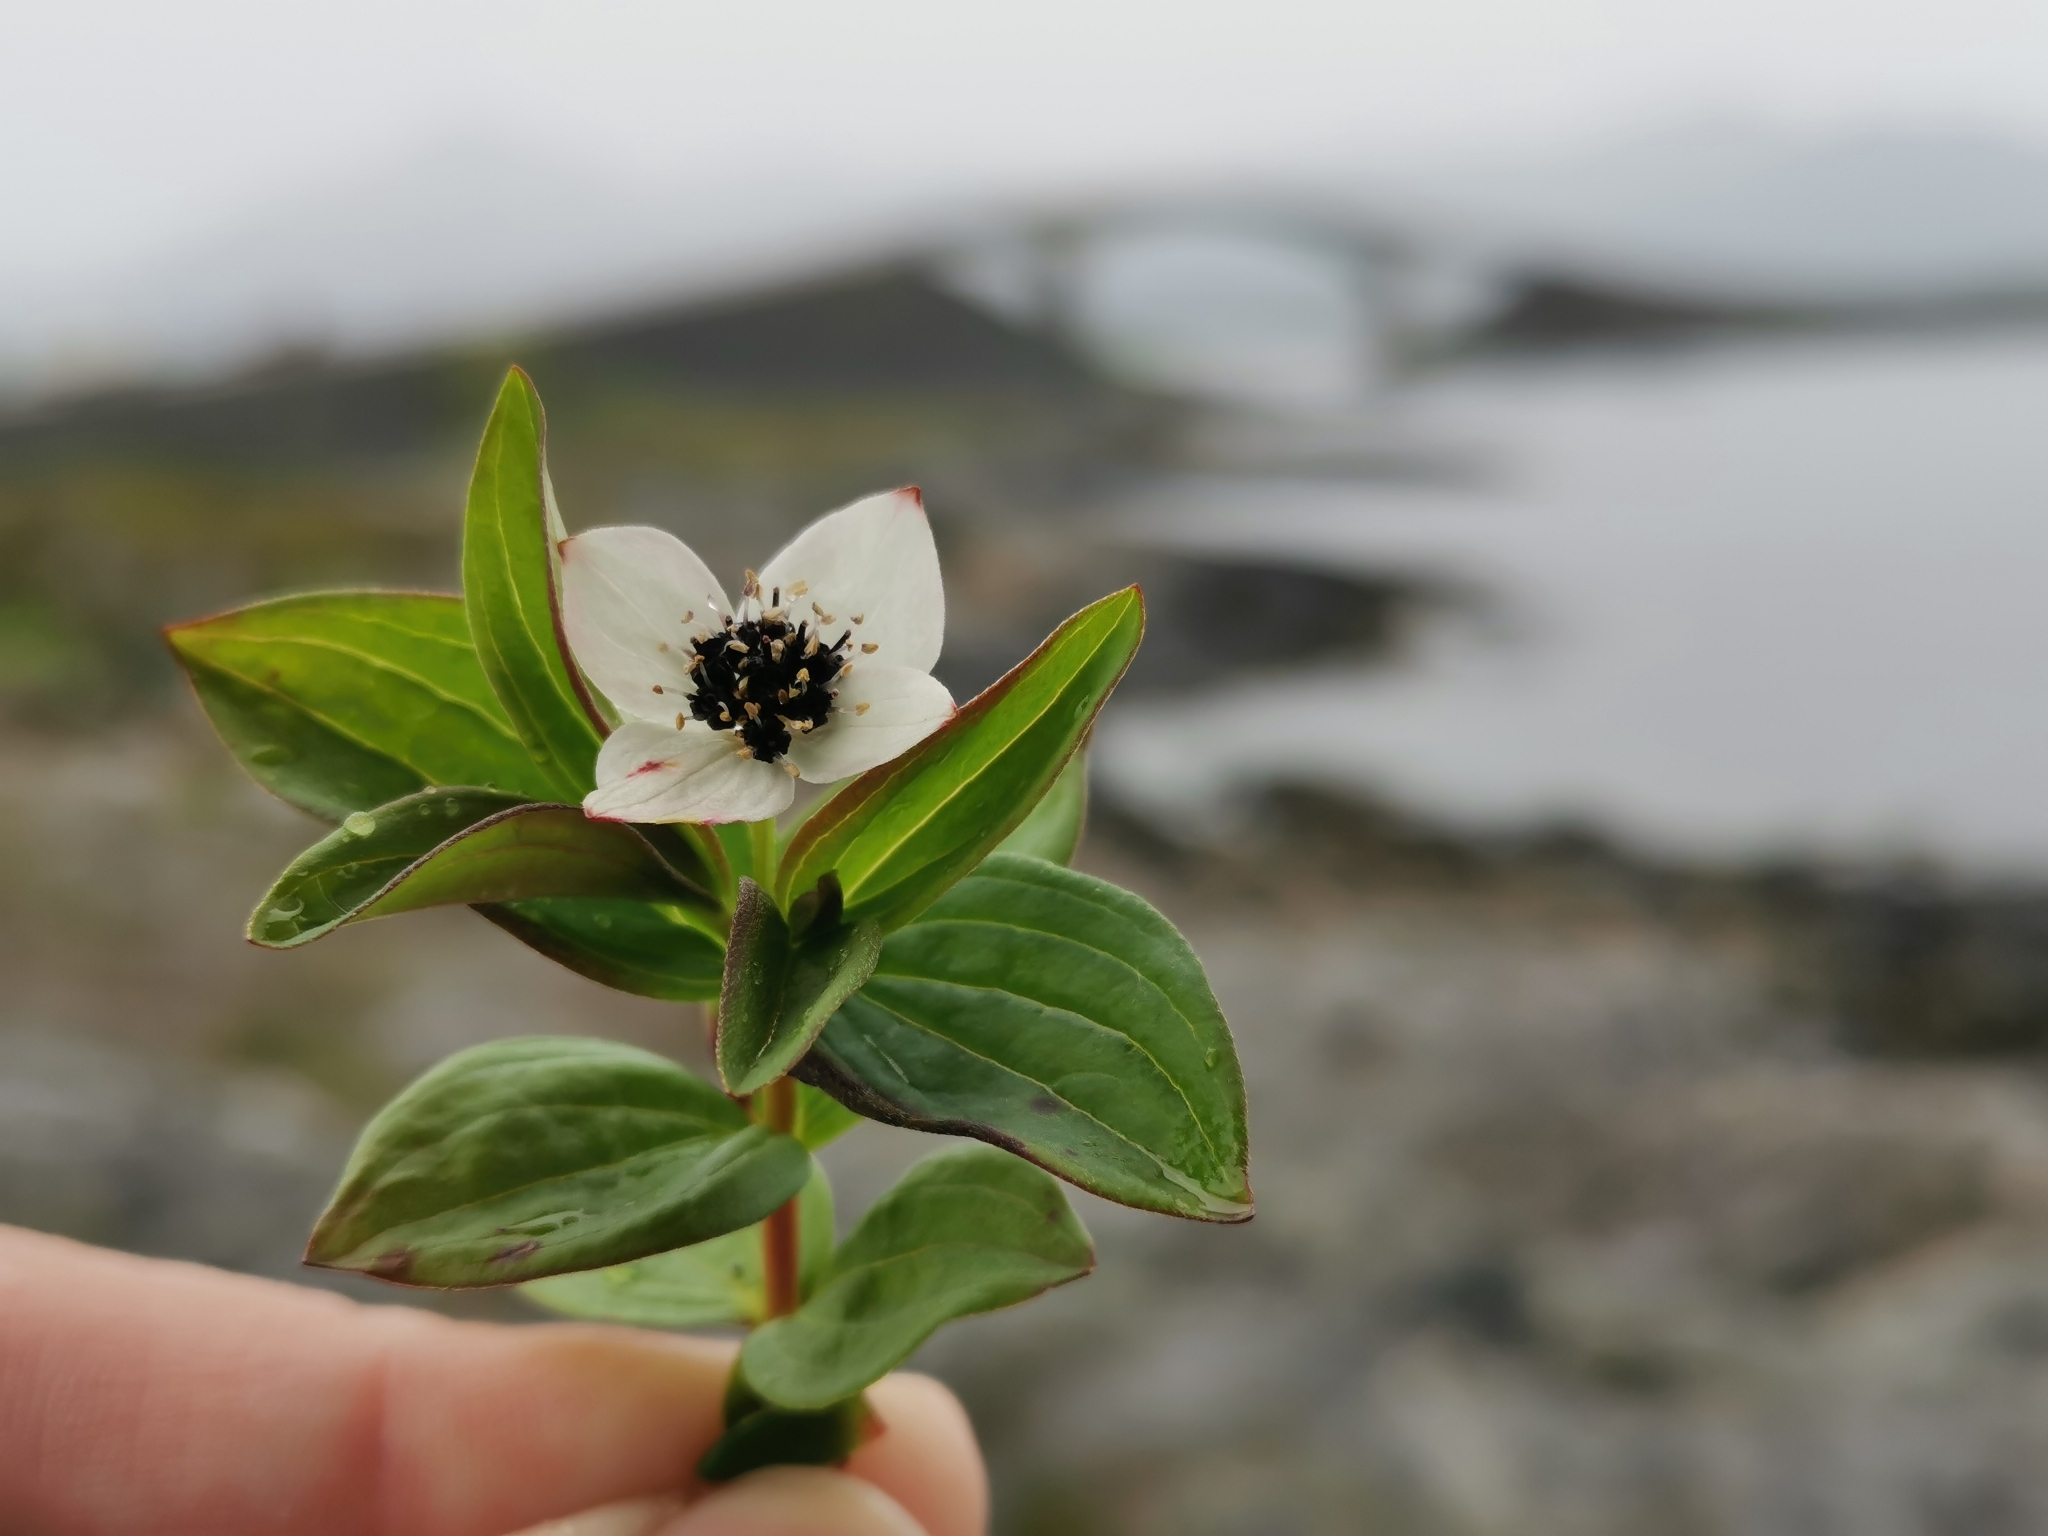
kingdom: Plantae
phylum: Tracheophyta
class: Magnoliopsida
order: Cornales
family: Cornaceae
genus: Cornus
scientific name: Cornus suecica
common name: Dwarf cornel
